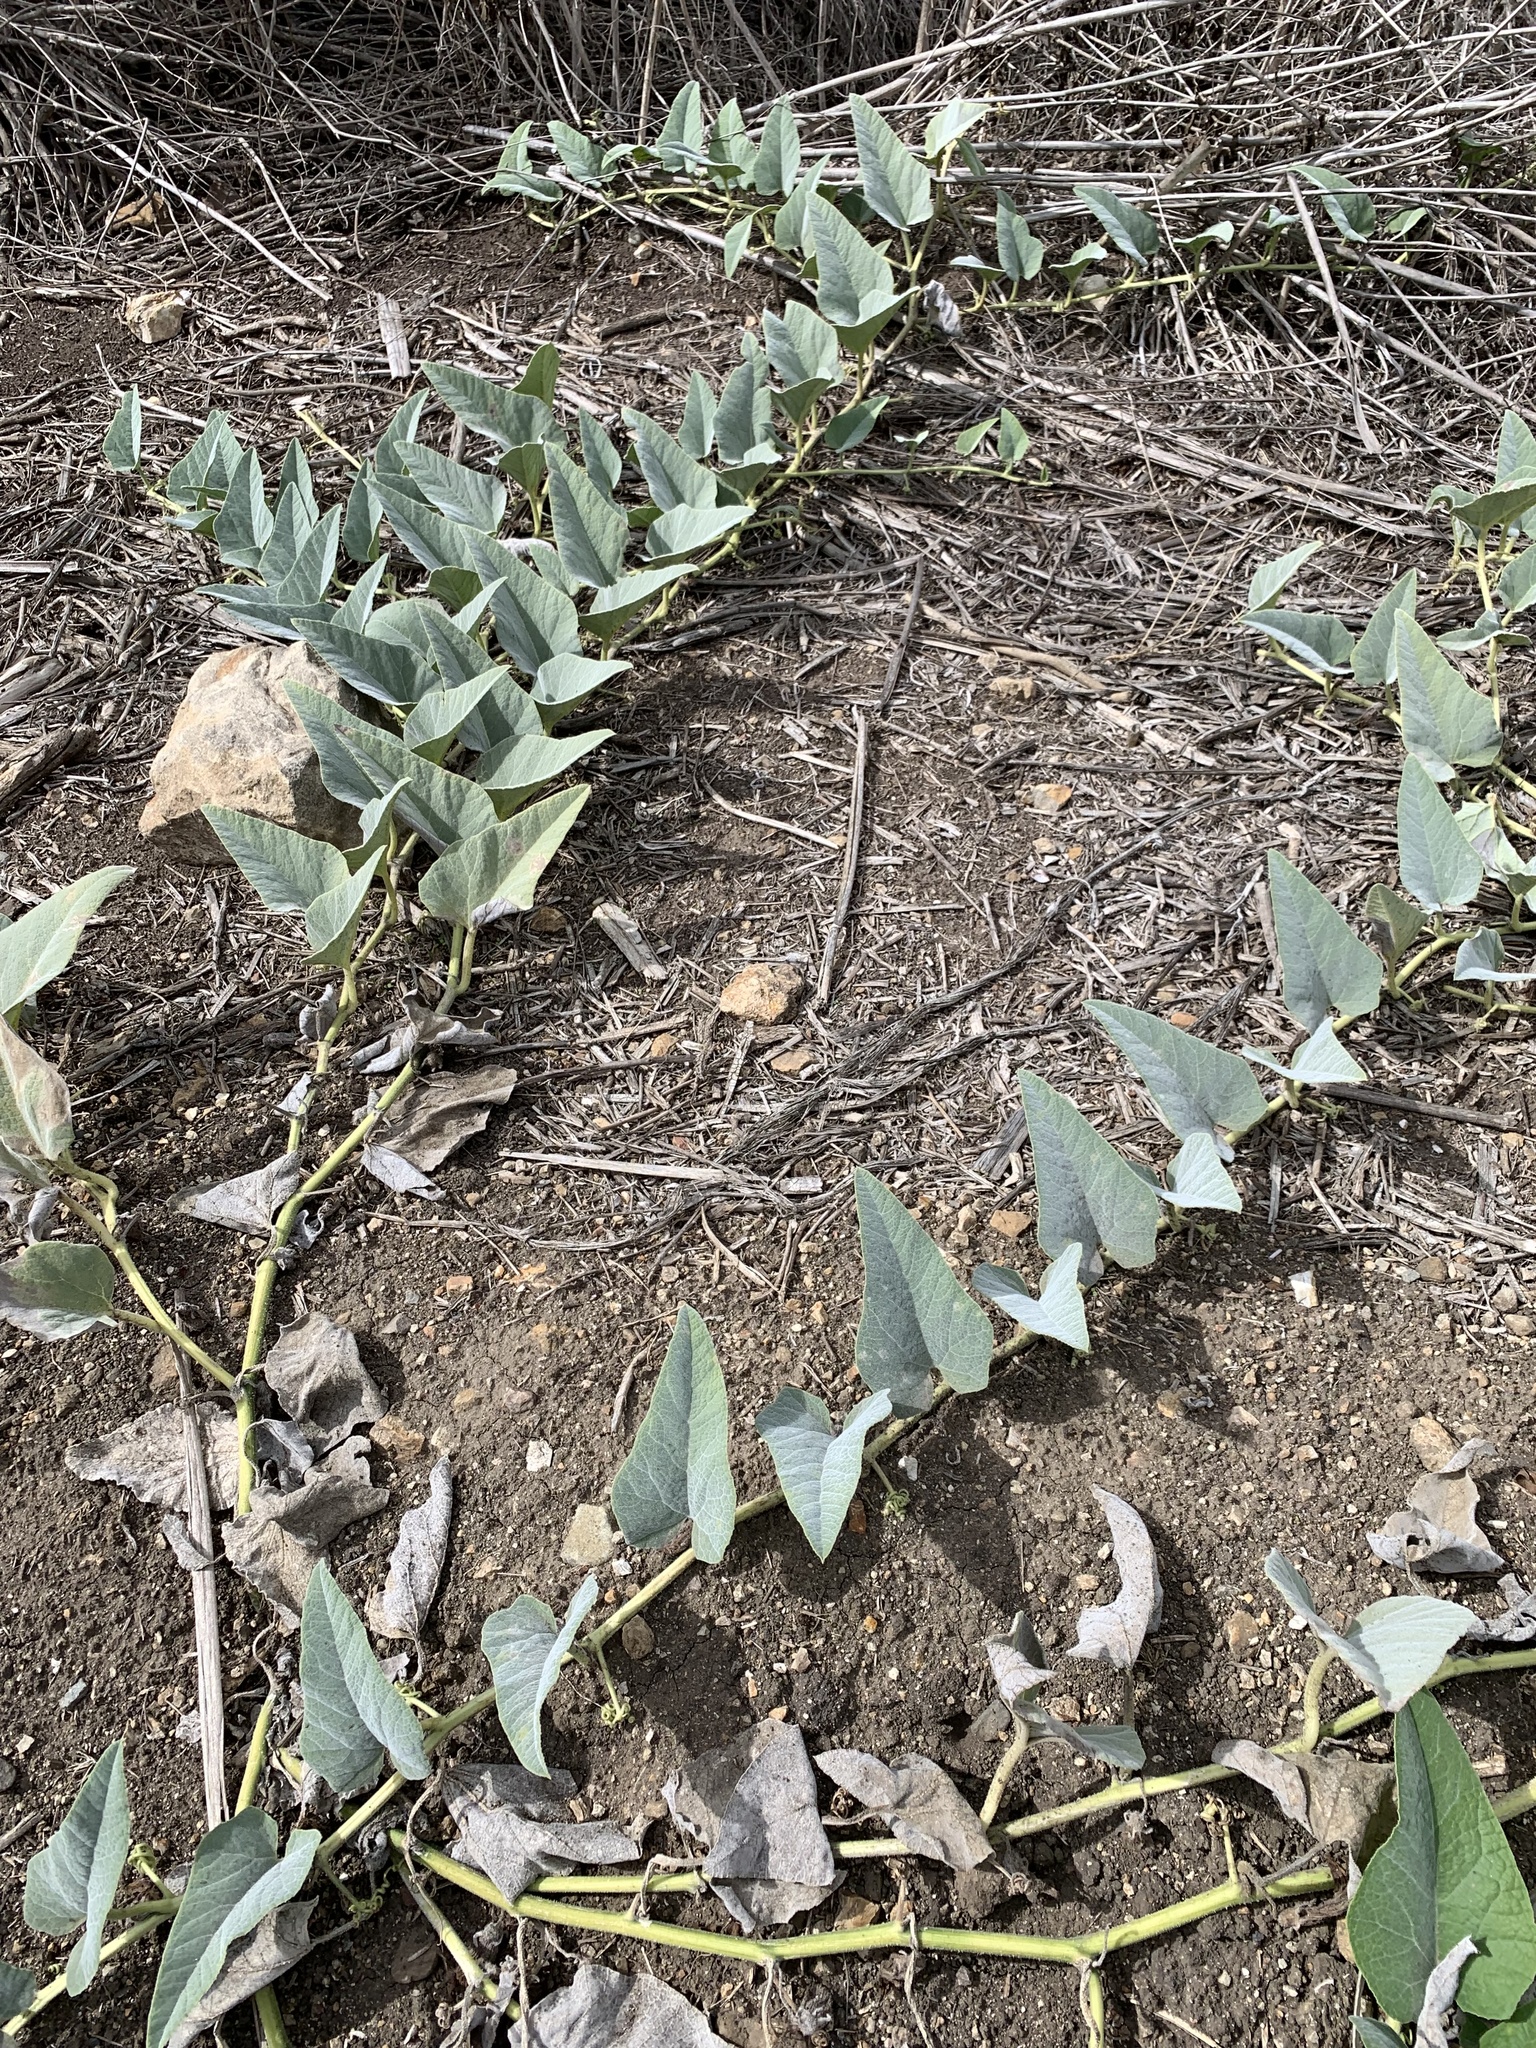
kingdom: Plantae
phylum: Tracheophyta
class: Magnoliopsida
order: Cucurbitales
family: Cucurbitaceae
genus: Cucurbita
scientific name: Cucurbita foetidissima
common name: Buffalo gourd
